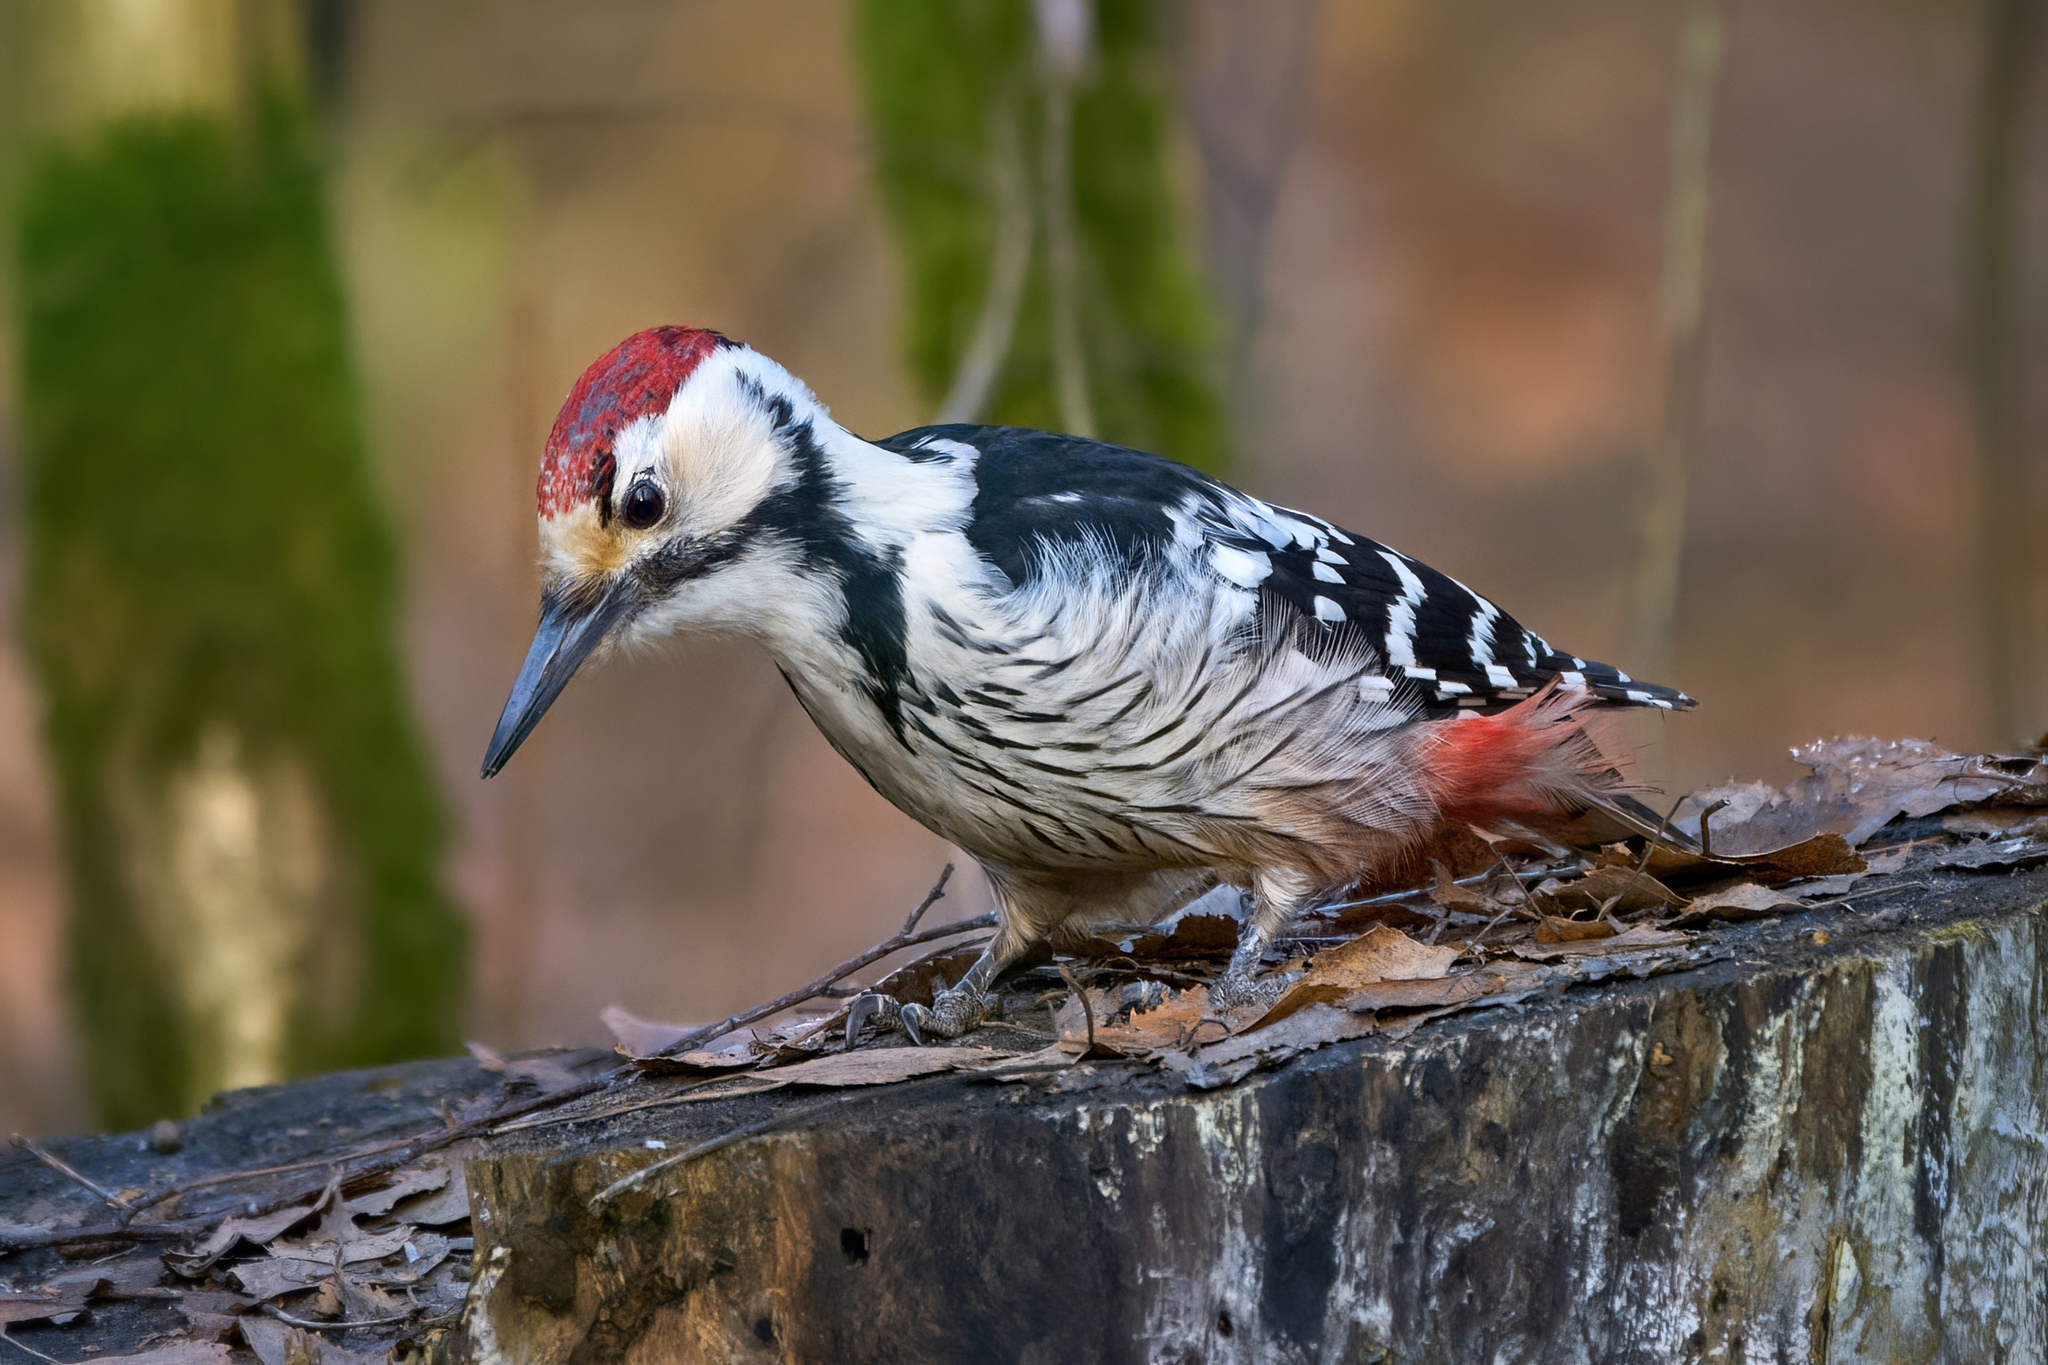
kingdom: Animalia
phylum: Chordata
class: Aves
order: Piciformes
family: Picidae
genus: Dendrocopos
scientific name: Dendrocopos leucotos
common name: White-backed woodpecker
